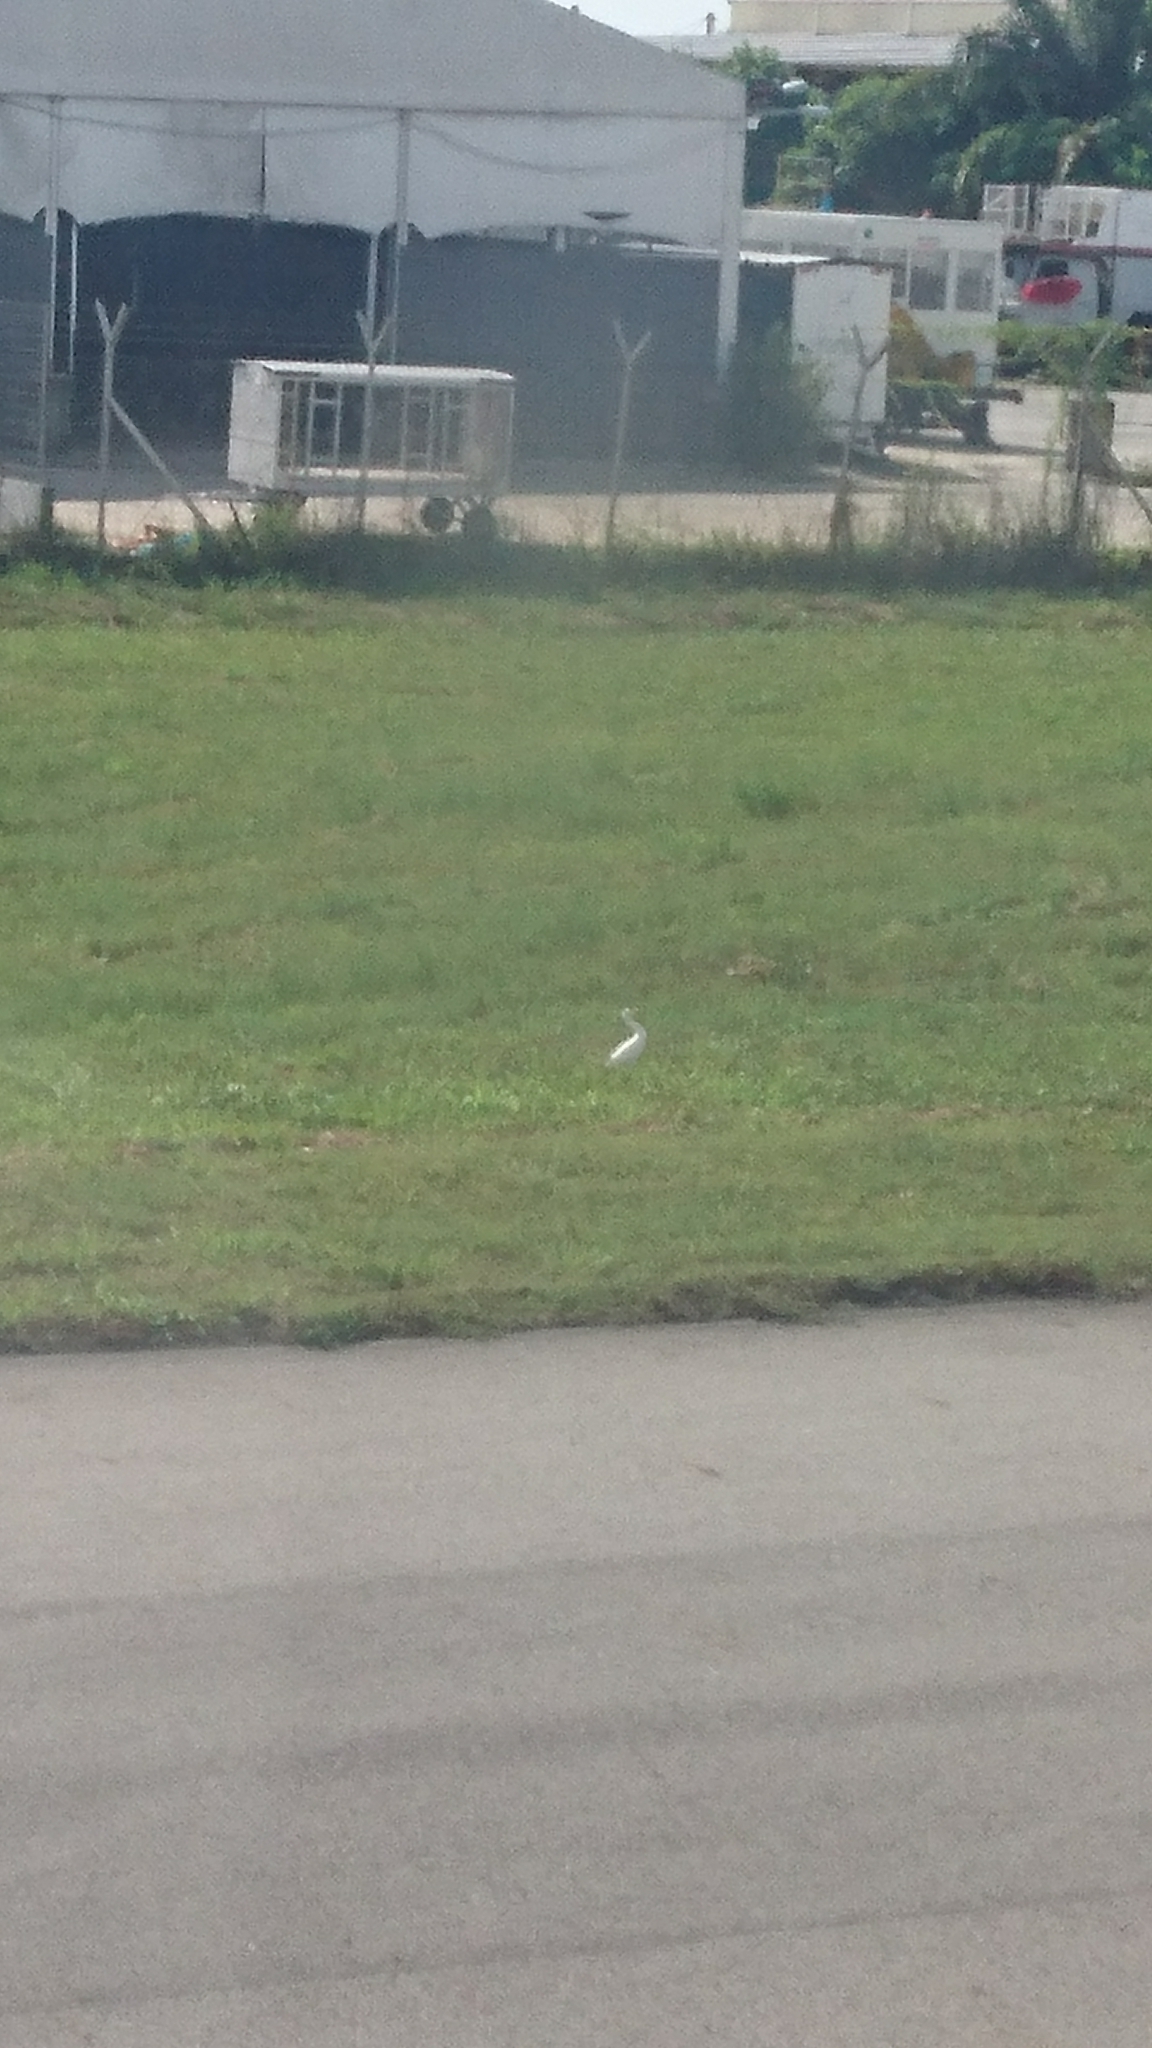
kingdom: Animalia
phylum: Chordata
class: Aves
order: Pelecaniformes
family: Ardeidae
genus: Bubulcus
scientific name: Bubulcus coromandus
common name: Eastern cattle egret
